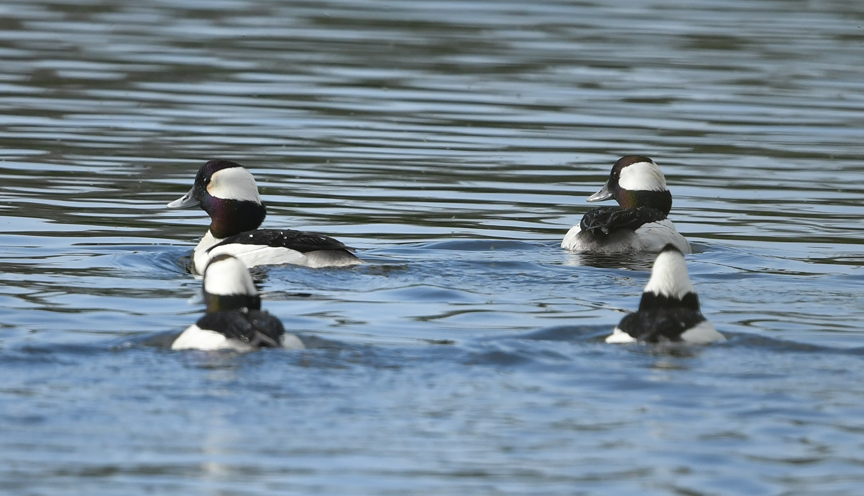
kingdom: Animalia
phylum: Chordata
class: Aves
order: Anseriformes
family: Anatidae
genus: Bucephala
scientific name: Bucephala albeola
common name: Bufflehead
